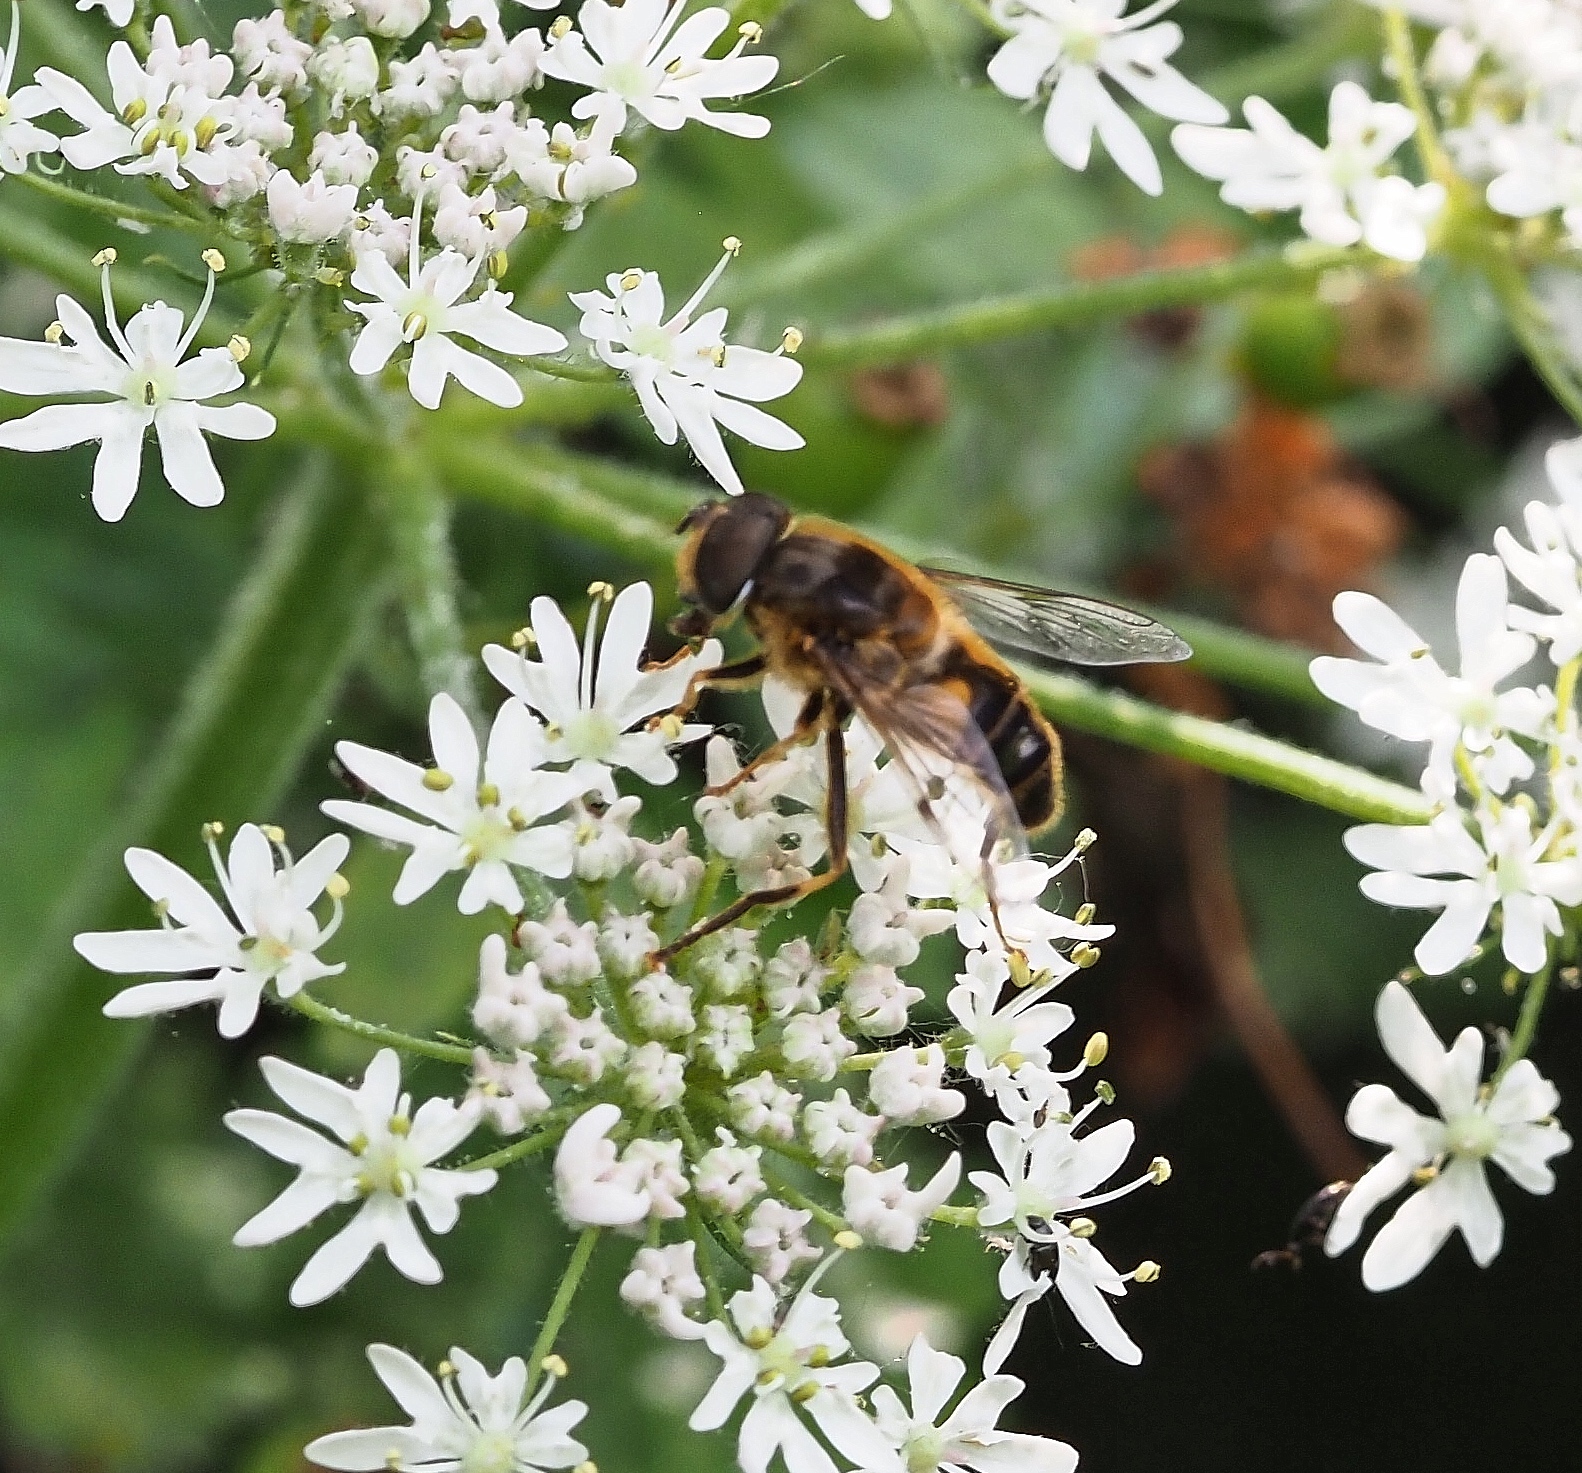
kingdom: Animalia
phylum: Arthropoda
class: Insecta
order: Diptera
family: Syrphidae
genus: Eristalis
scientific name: Eristalis pertinax
